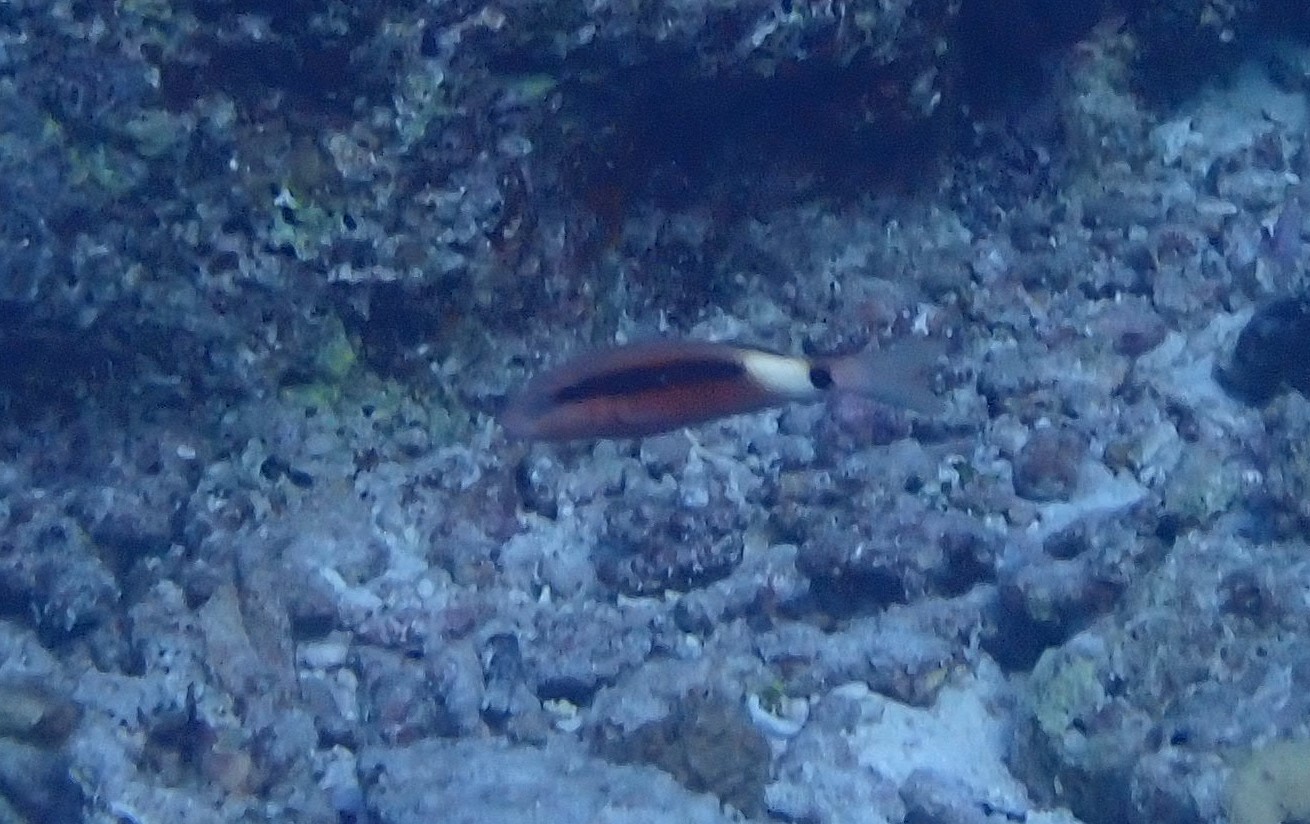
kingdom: Animalia
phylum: Chordata
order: Perciformes
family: Mullidae
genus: Parupeneus
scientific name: Parupeneus macronemus
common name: Long-barbel goatfish
